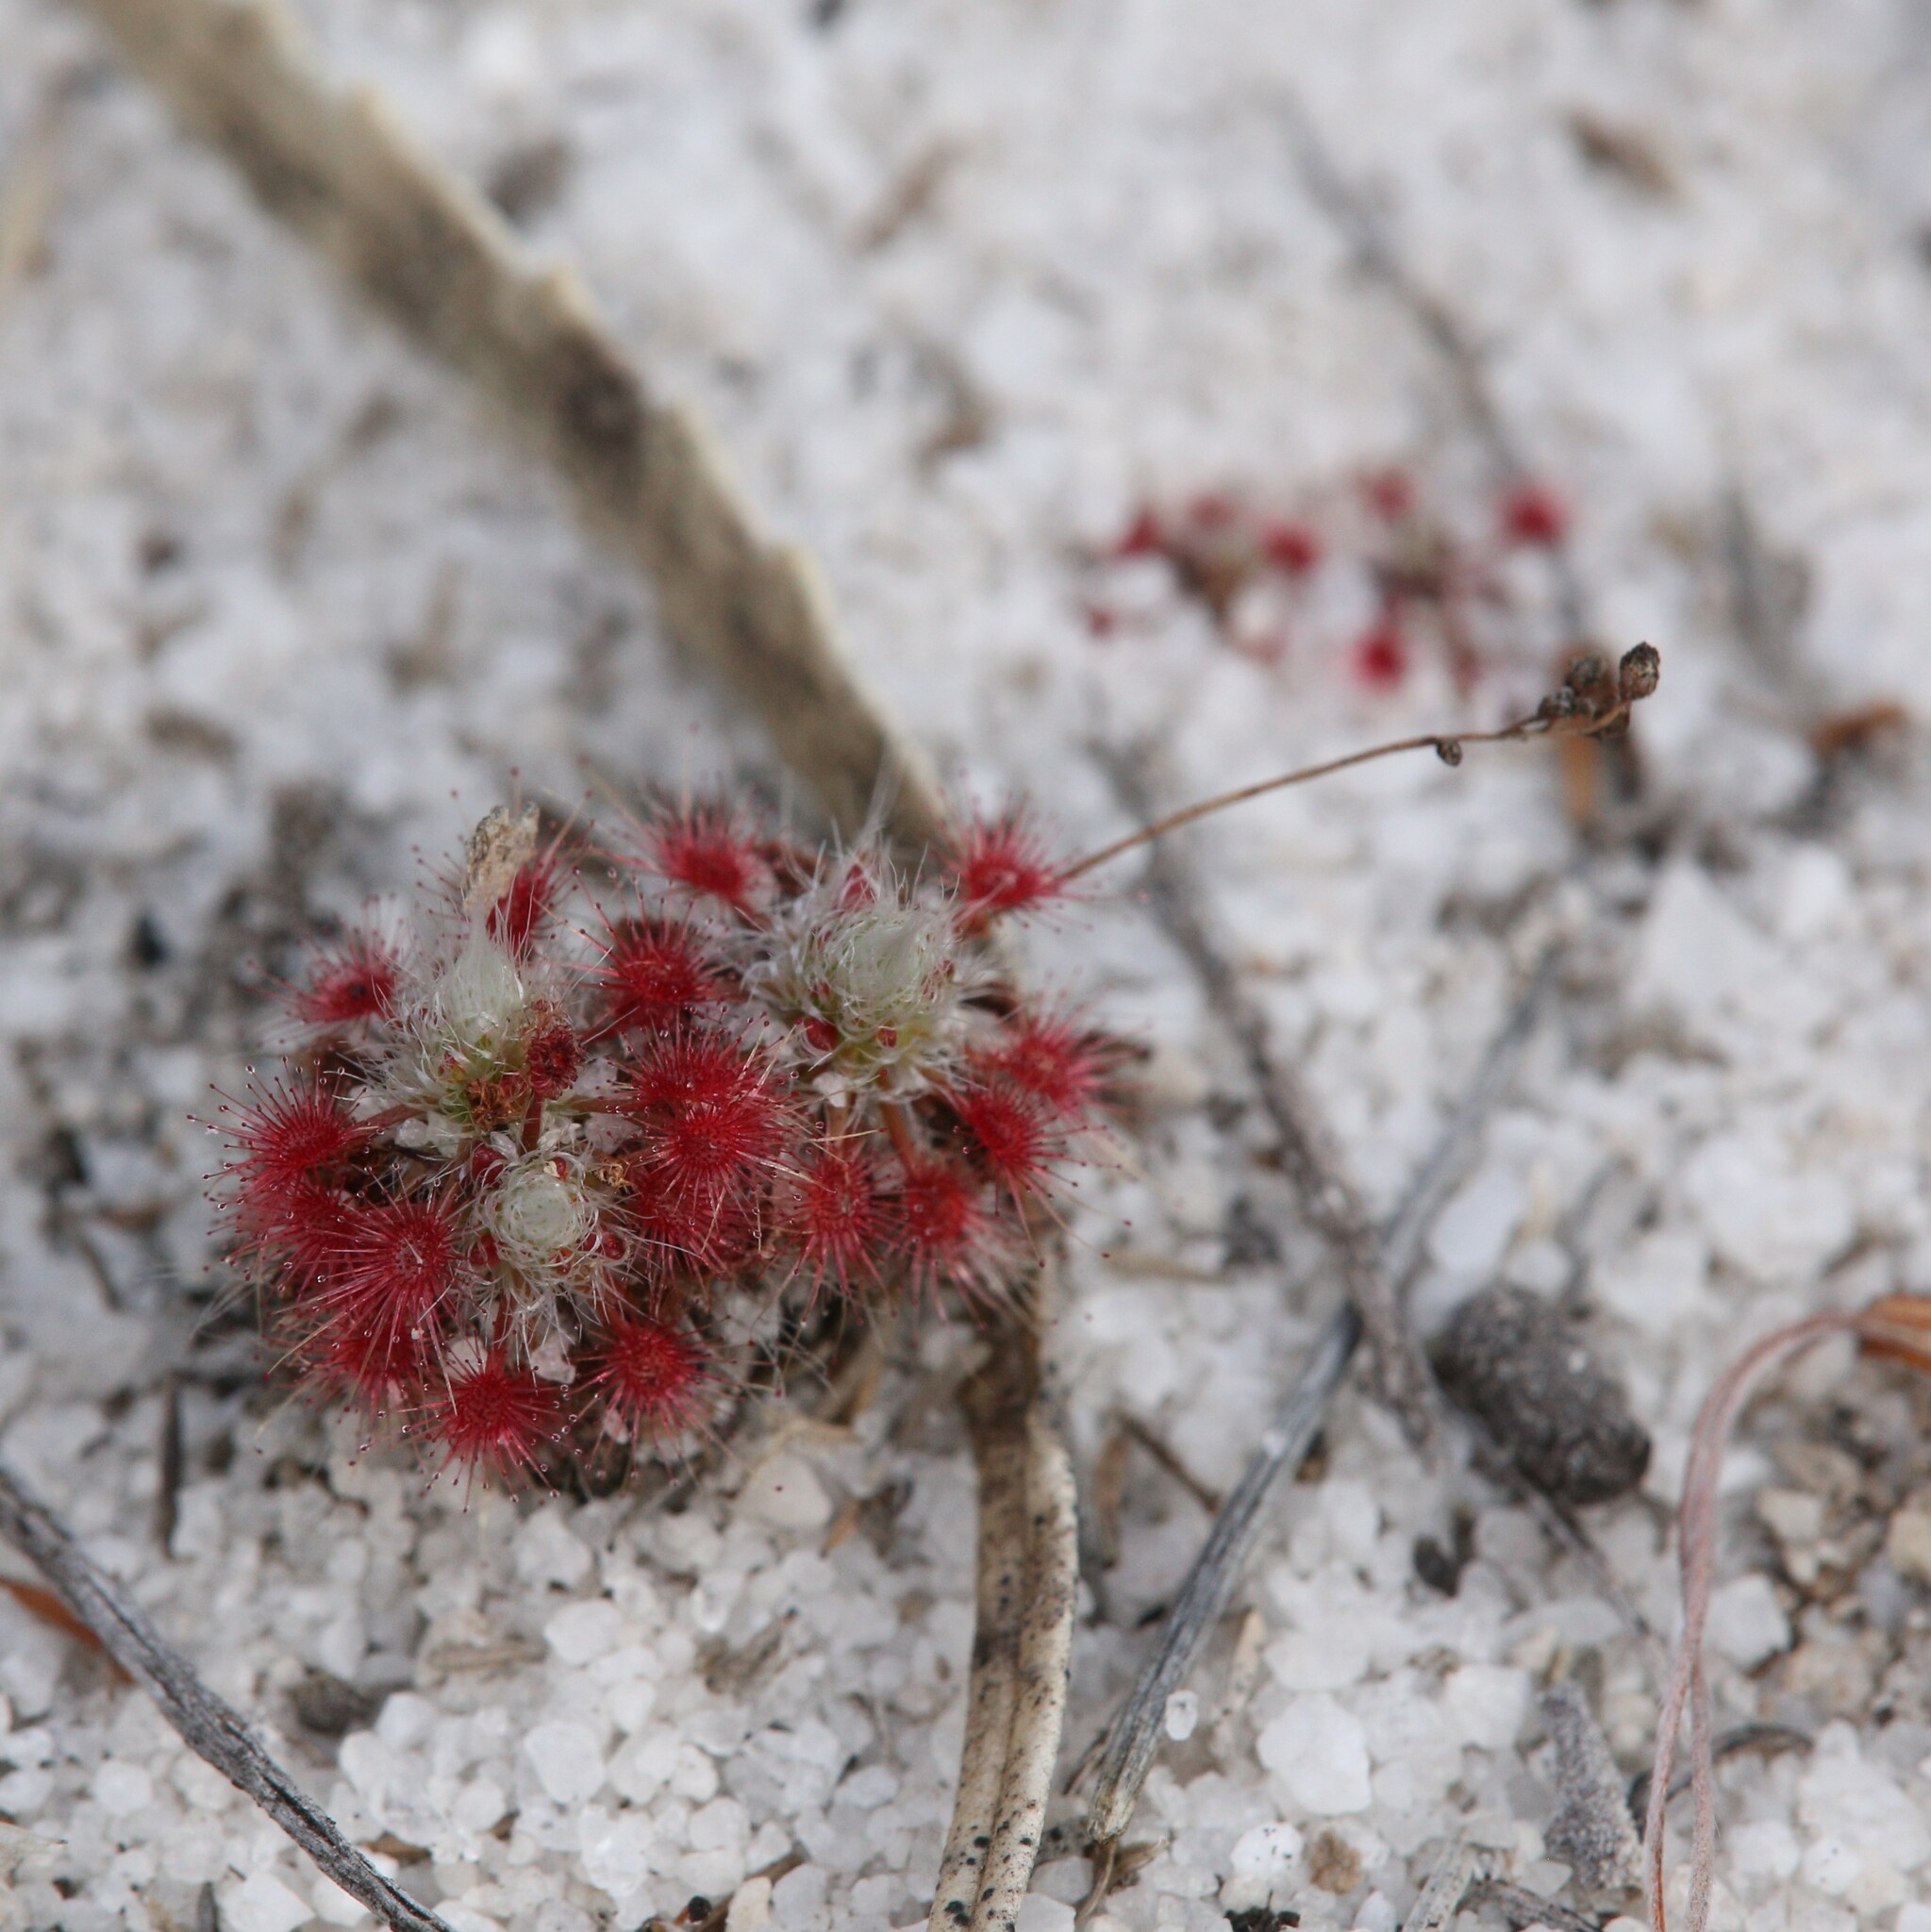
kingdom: Plantae
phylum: Tracheophyta
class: Magnoliopsida
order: Caryophyllales
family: Droseraceae
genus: Drosera
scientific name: Drosera paleacea
